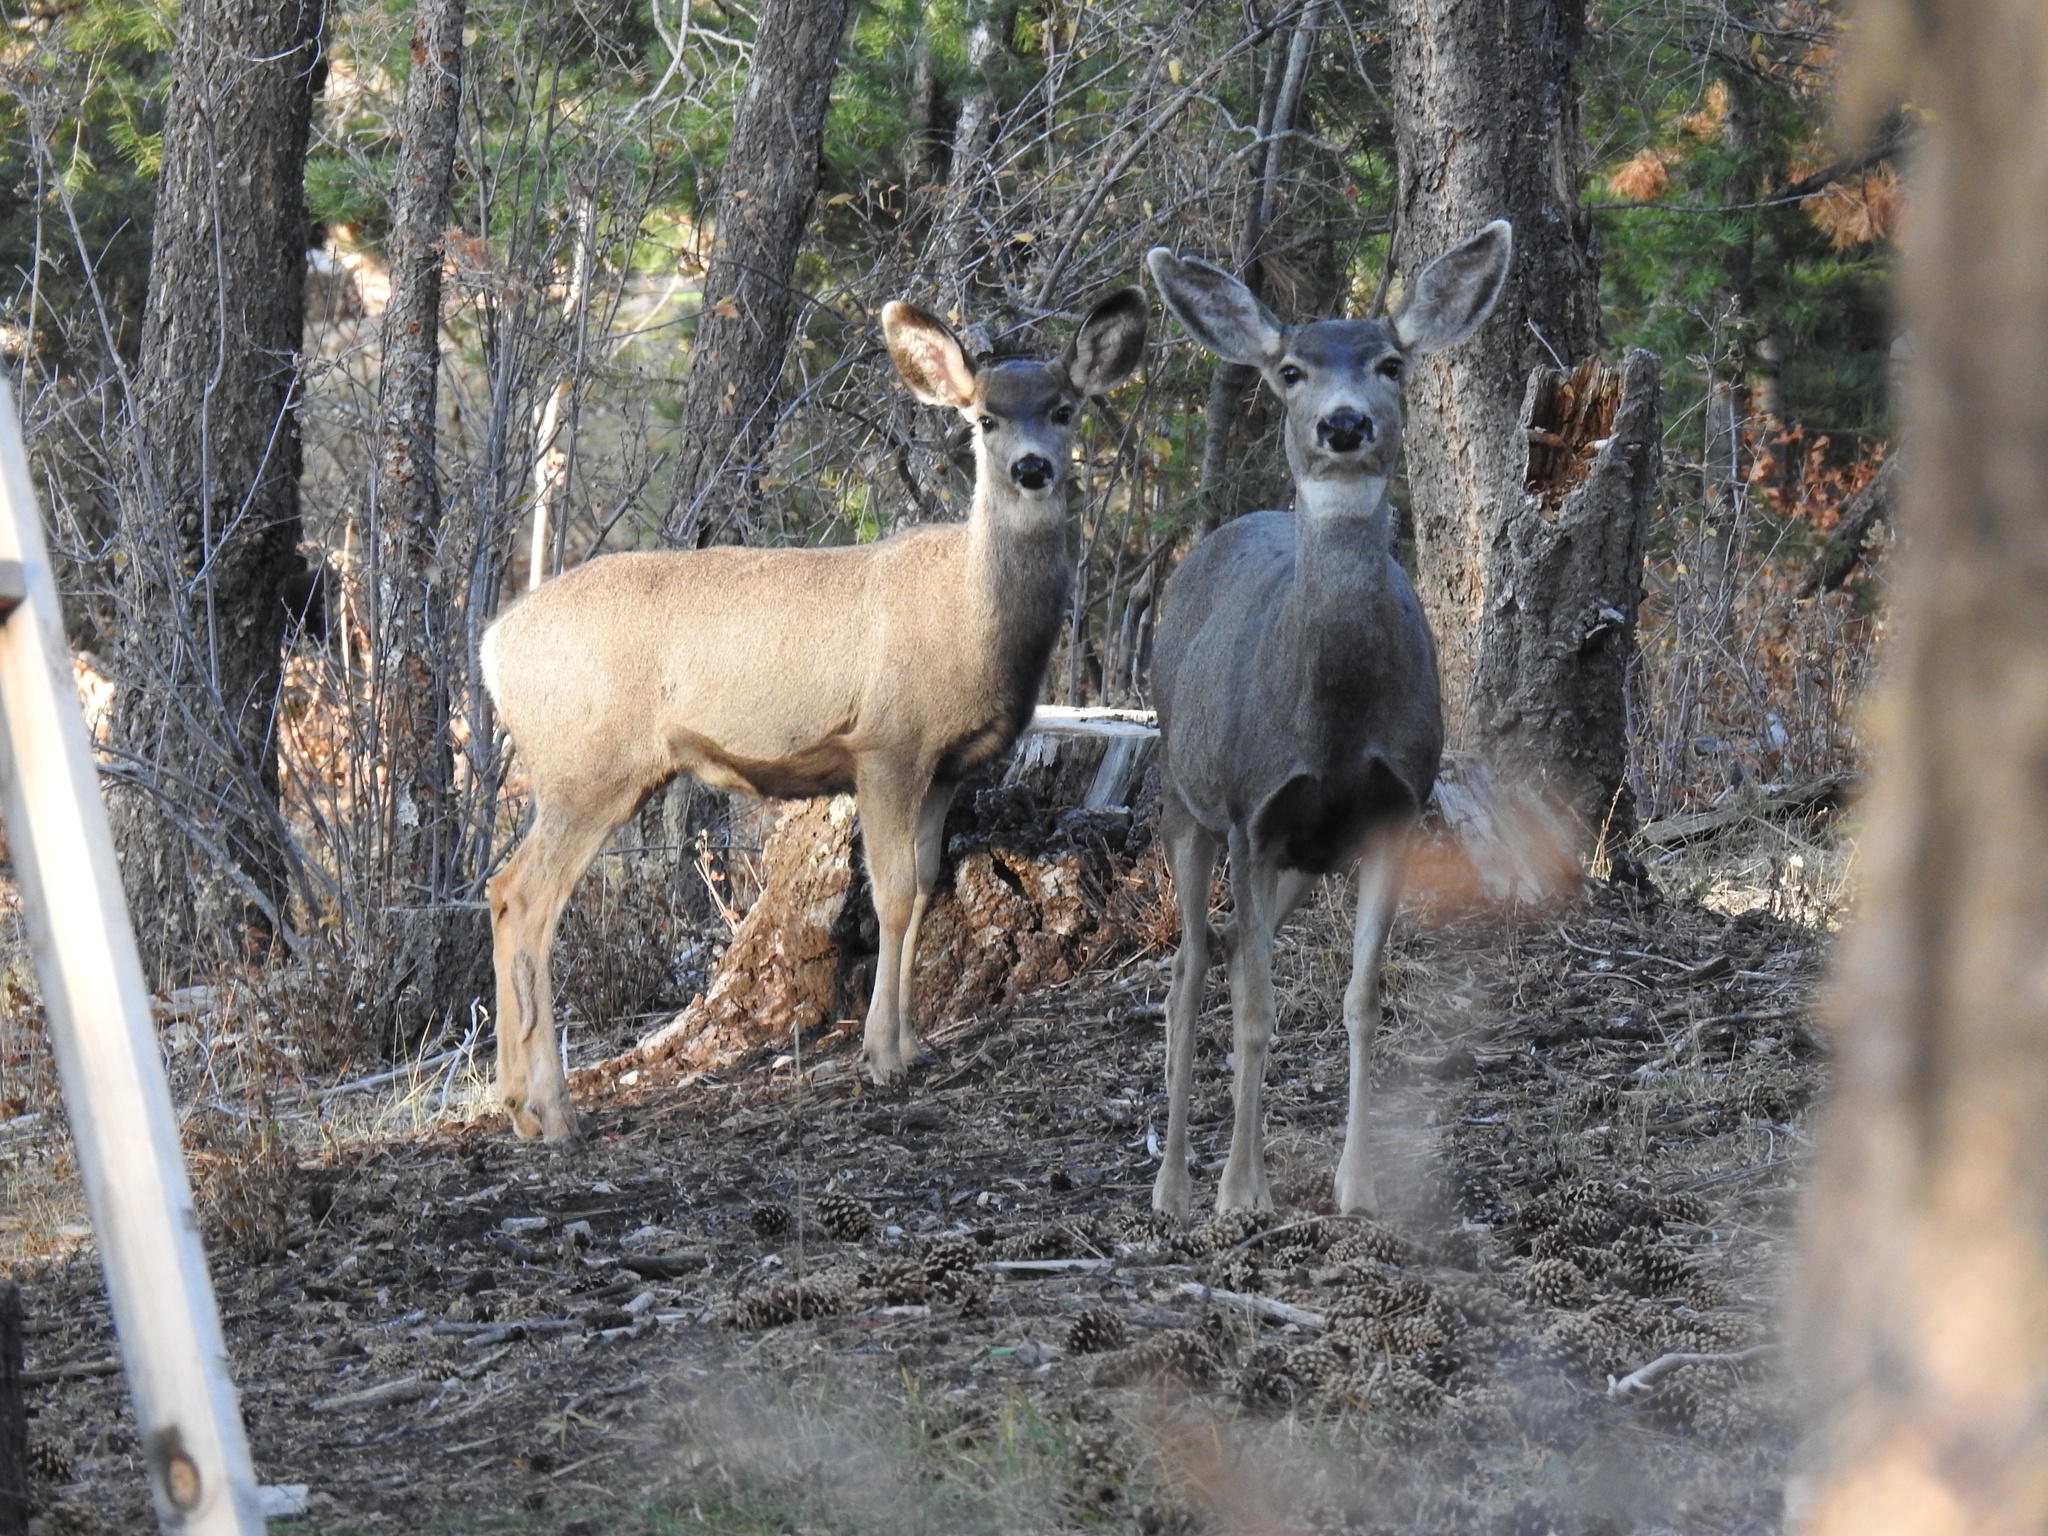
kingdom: Animalia
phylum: Chordata
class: Mammalia
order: Artiodactyla
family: Cervidae
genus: Odocoileus
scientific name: Odocoileus hemionus
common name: Mule deer
